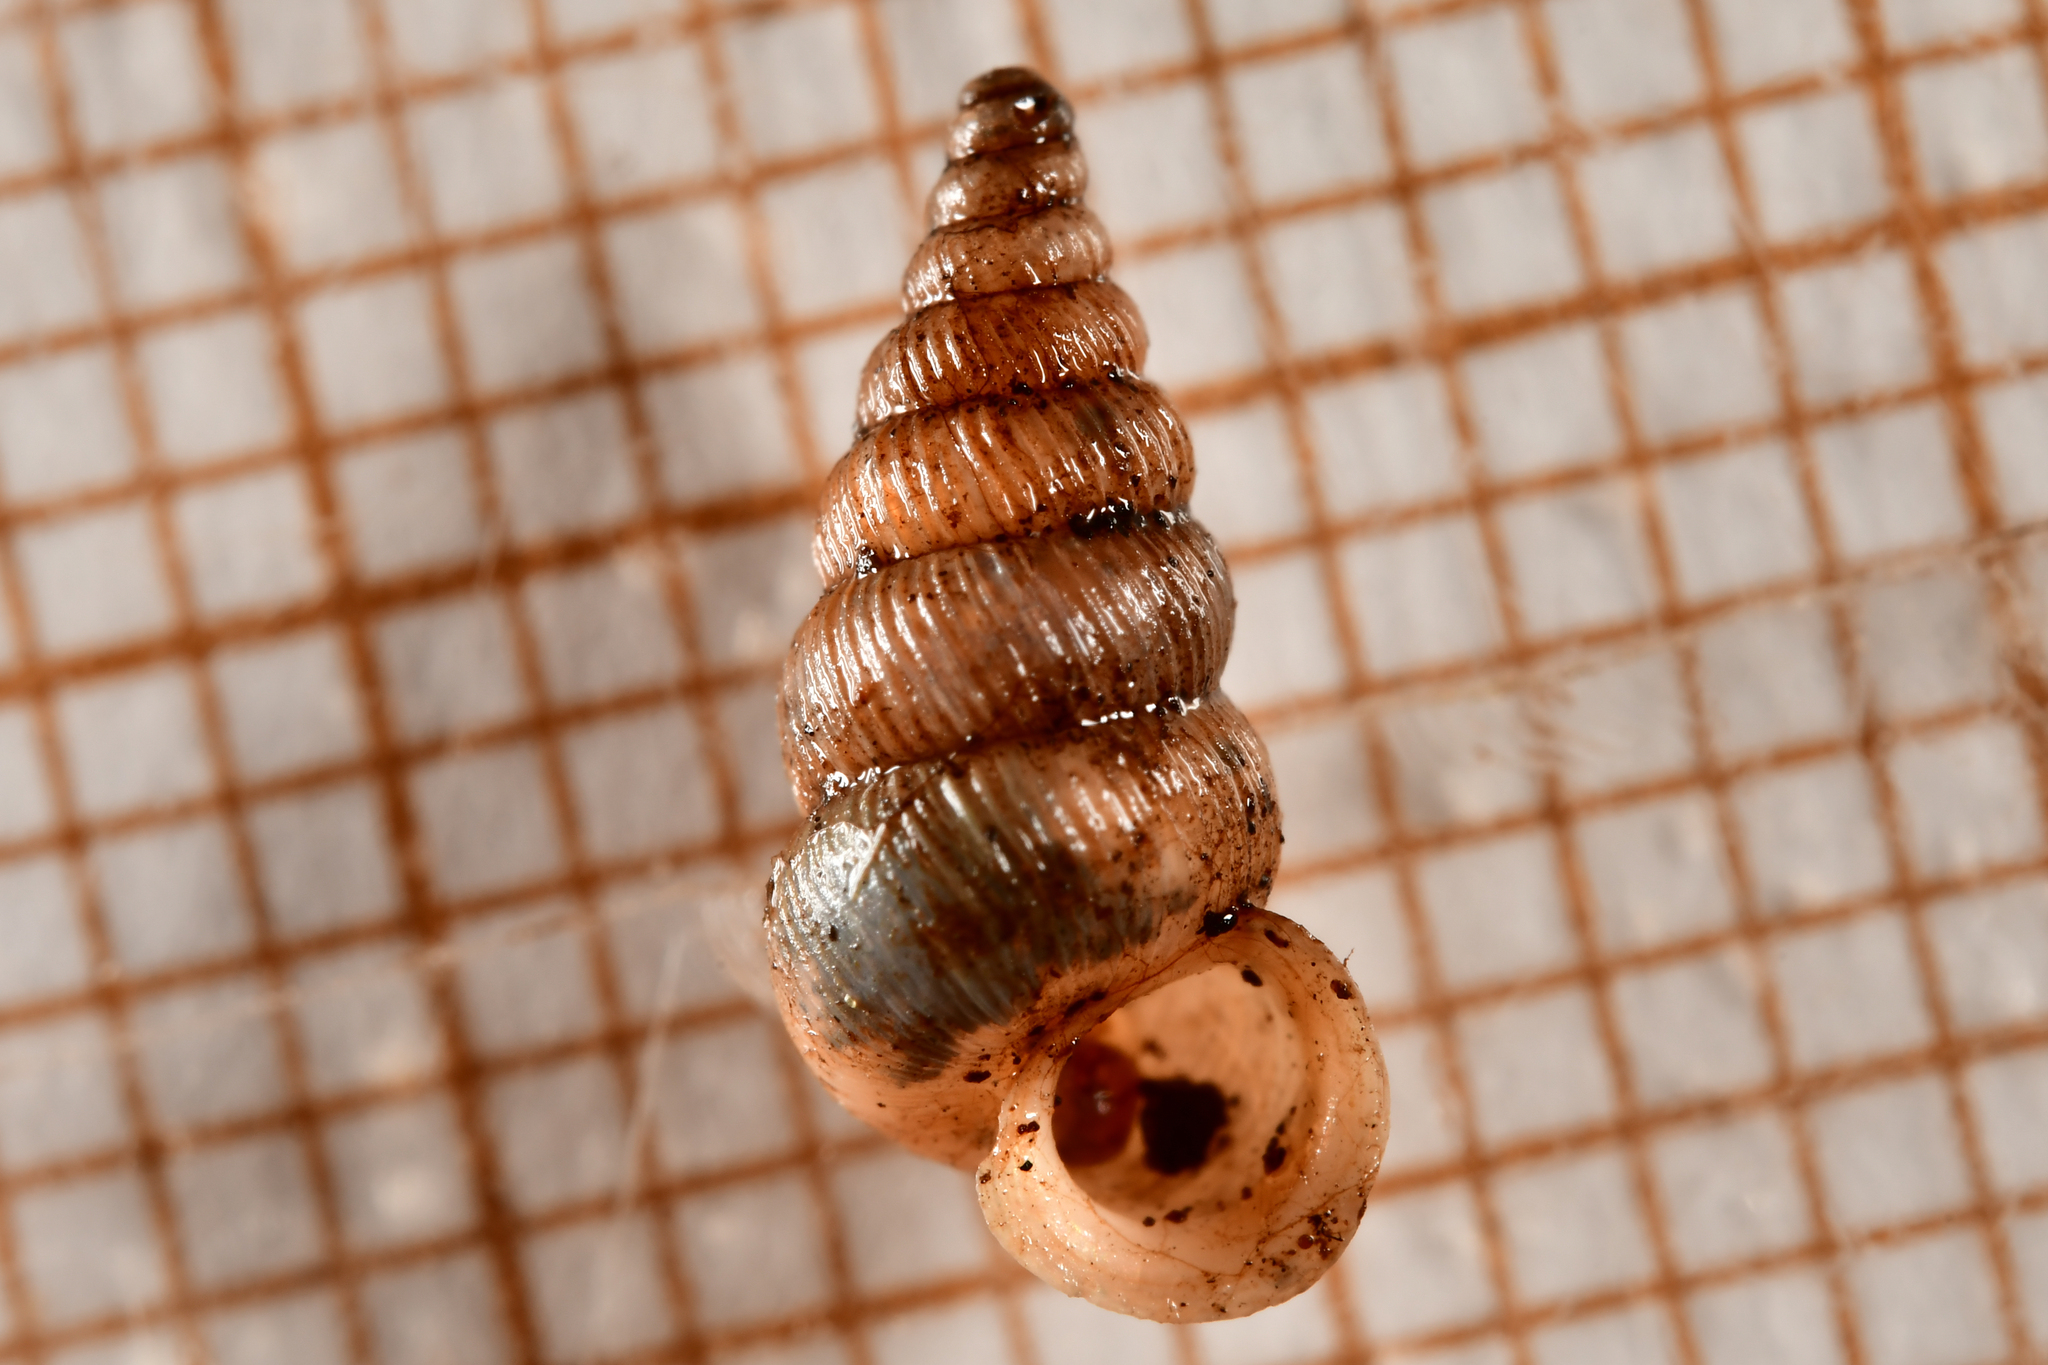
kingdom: Animalia
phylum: Mollusca
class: Gastropoda
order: Architaenioglossa
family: Cochlostomatidae
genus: Cochlostoma
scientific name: Cochlostoma septemspirale
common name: Seven-whorl snail
